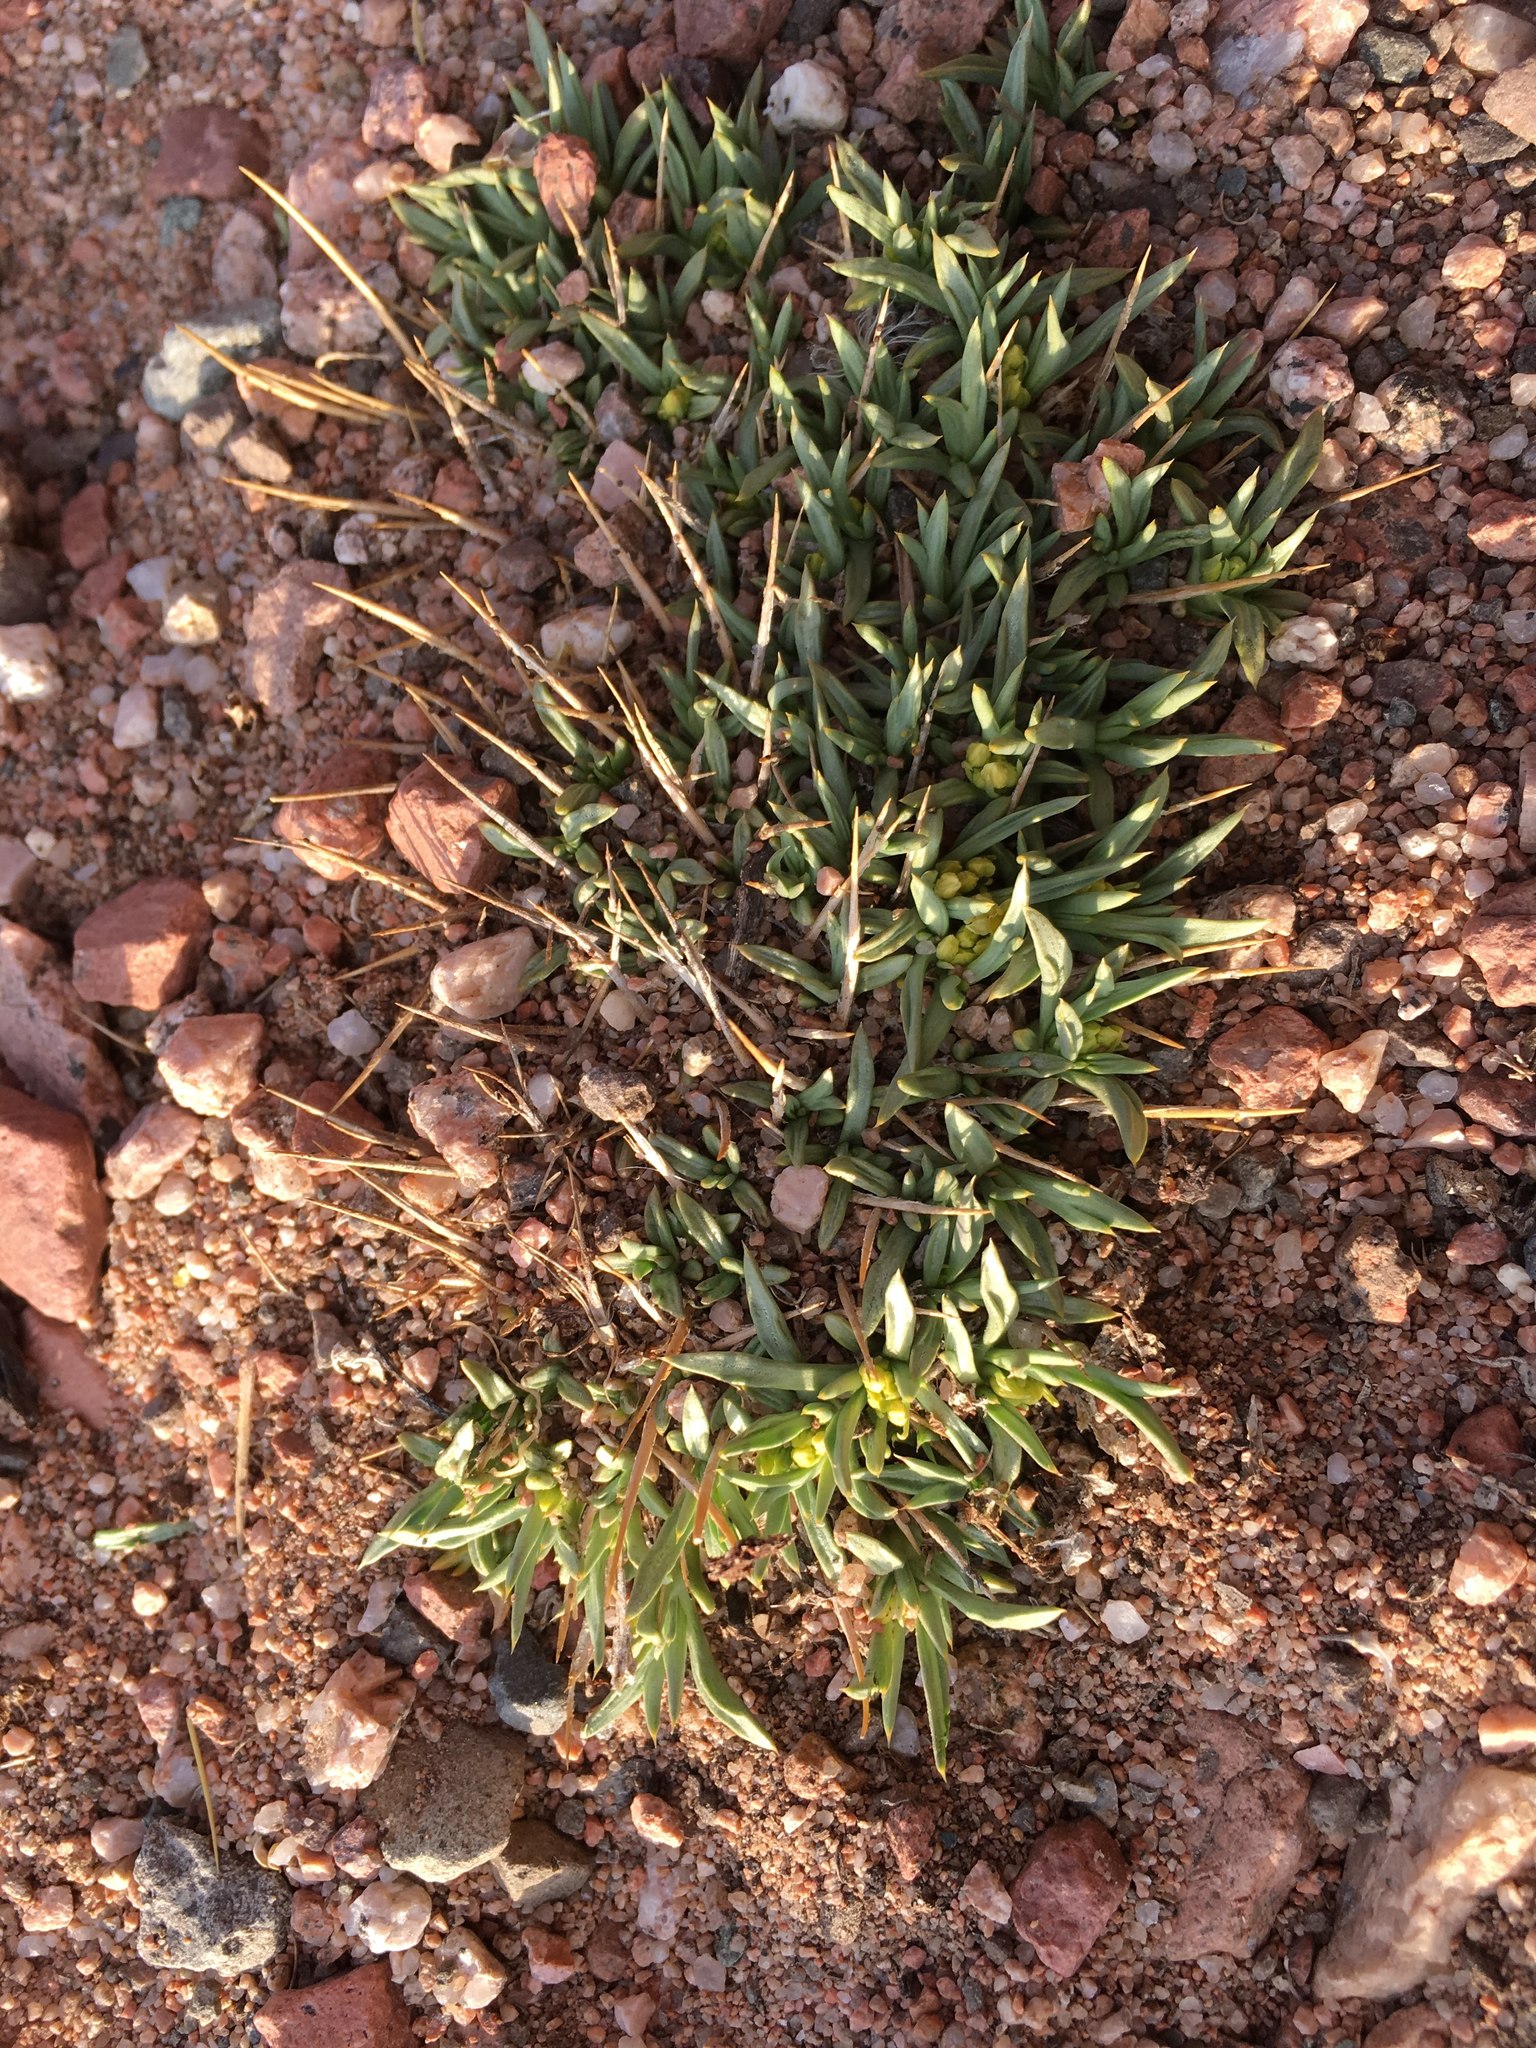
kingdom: Plantae
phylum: Tracheophyta
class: Magnoliopsida
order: Apiales
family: Apiaceae
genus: Azorella
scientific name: Azorella cryptantha
